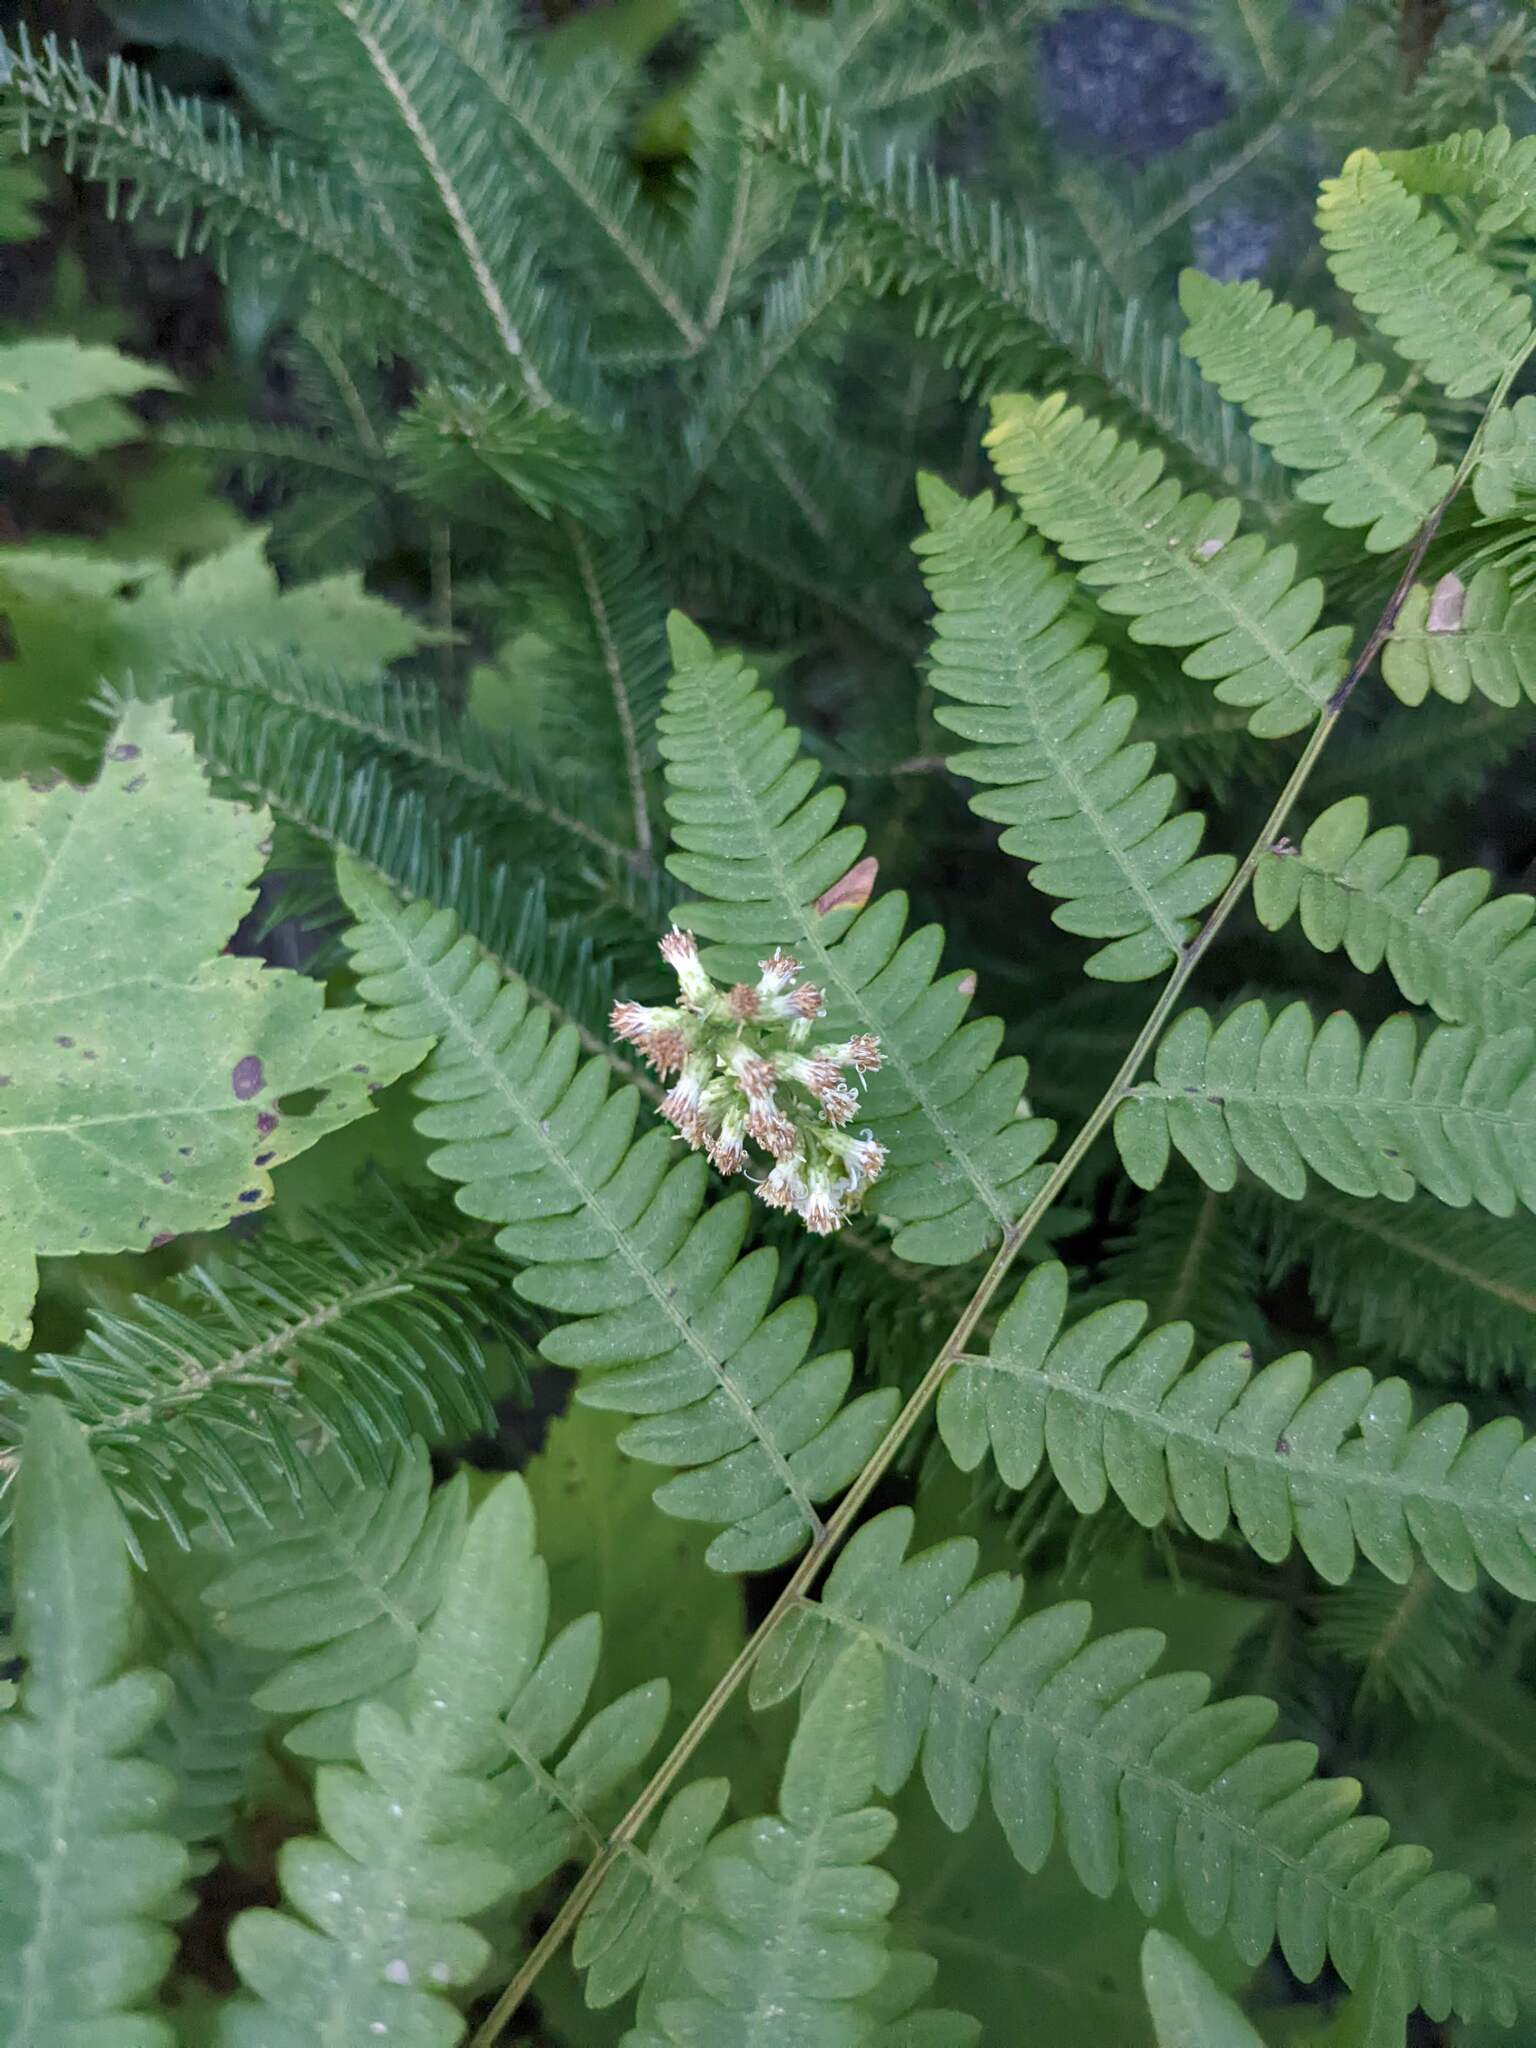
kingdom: Plantae
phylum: Tracheophyta
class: Magnoliopsida
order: Asterales
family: Asteraceae
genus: Solidago
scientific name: Solidago bicolor
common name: Silverrod
